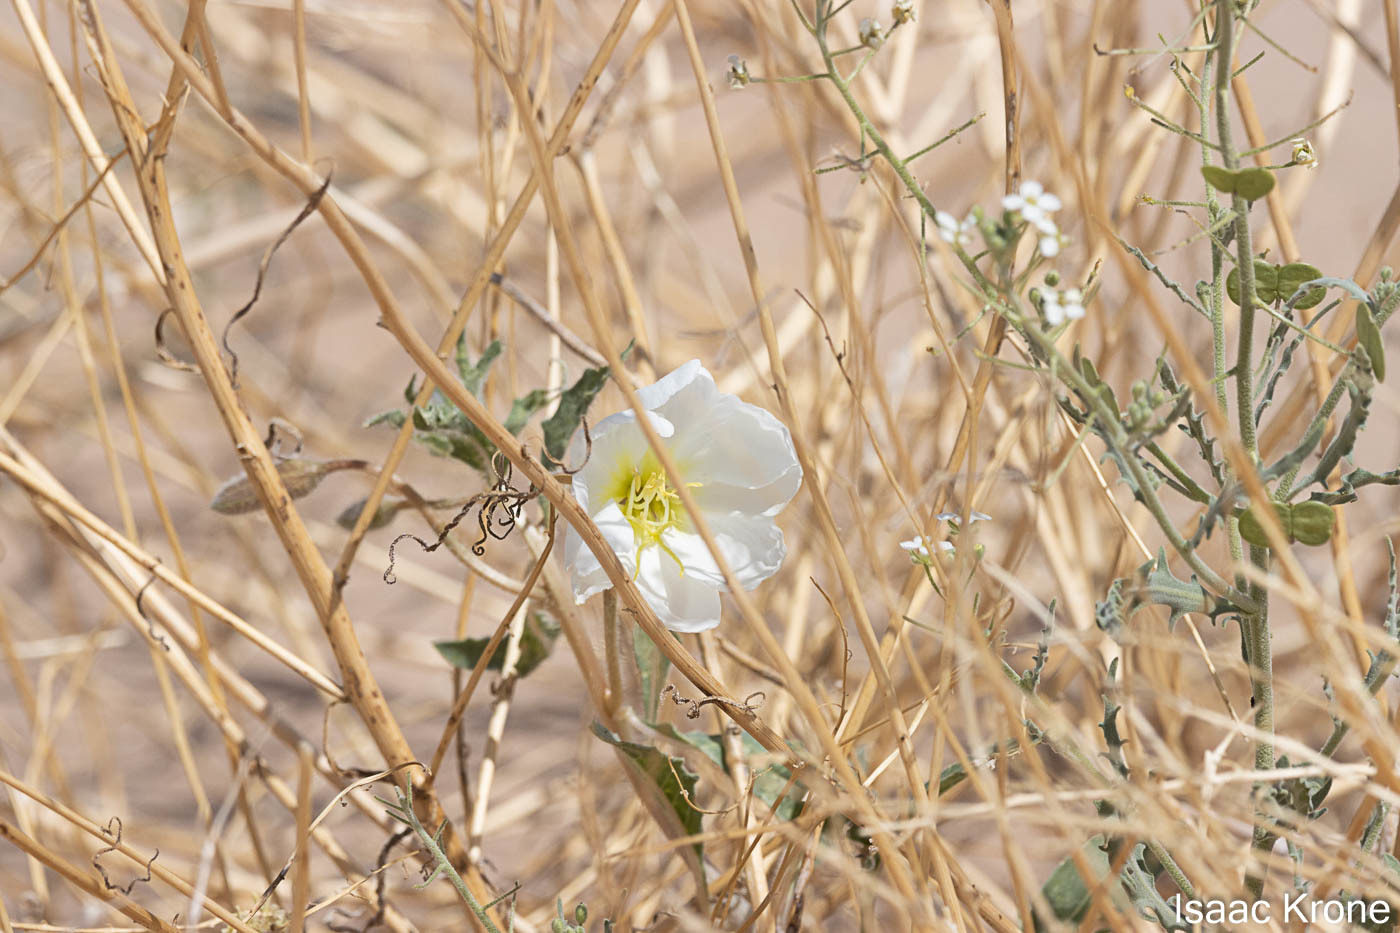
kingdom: Plantae
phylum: Tracheophyta
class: Magnoliopsida
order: Myrtales
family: Onagraceae
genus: Oenothera
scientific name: Oenothera deltoides
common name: Basket evening-primrose
